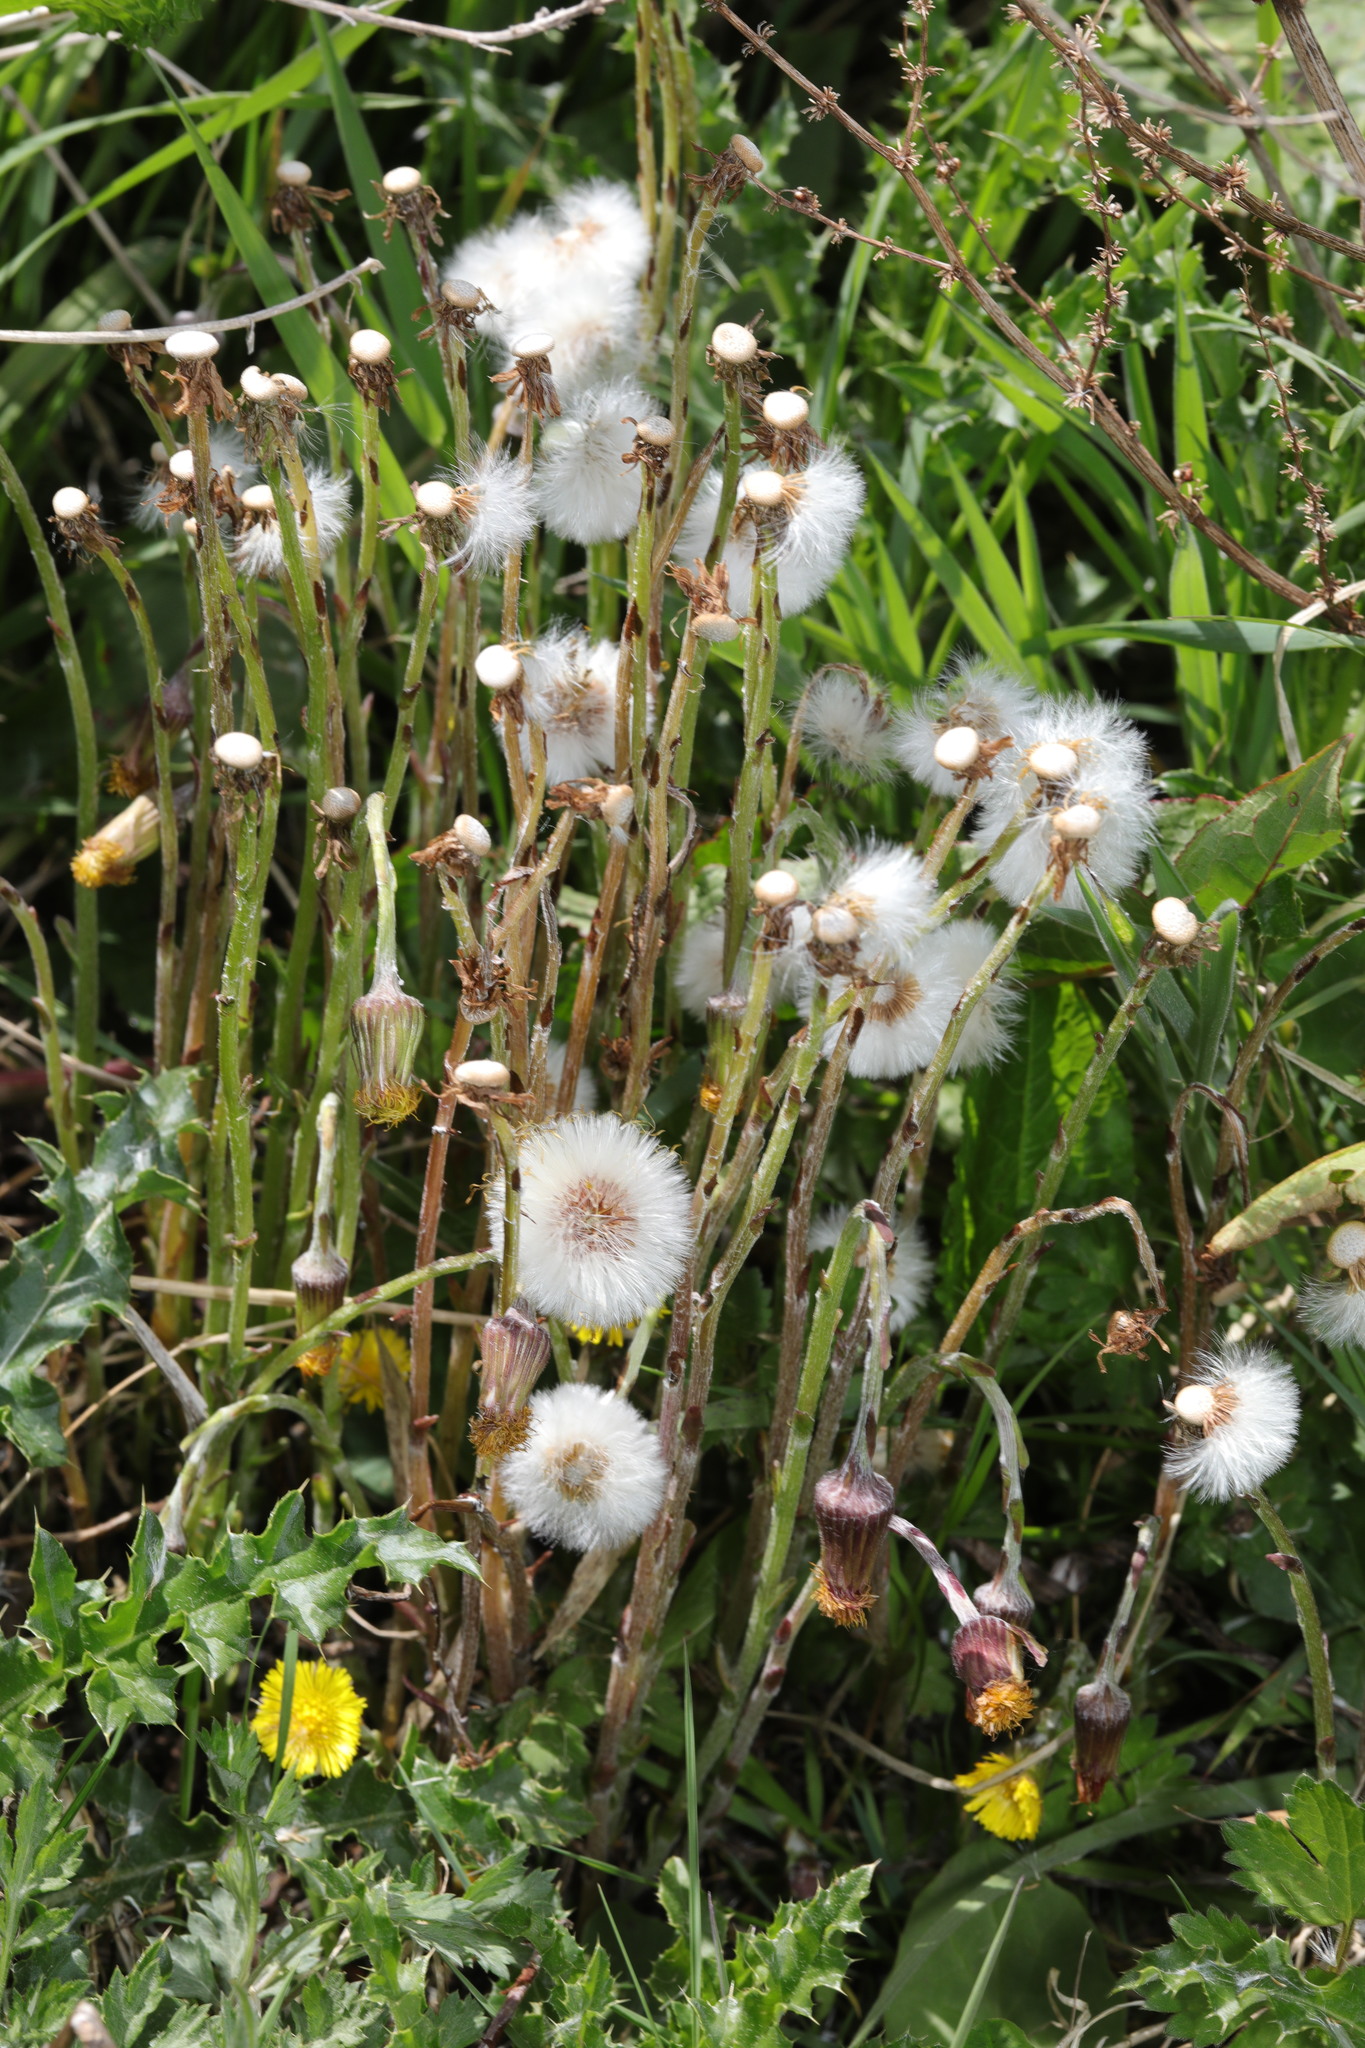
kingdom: Plantae
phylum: Tracheophyta
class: Magnoliopsida
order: Asterales
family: Asteraceae
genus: Tussilago
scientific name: Tussilago farfara
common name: Coltsfoot
